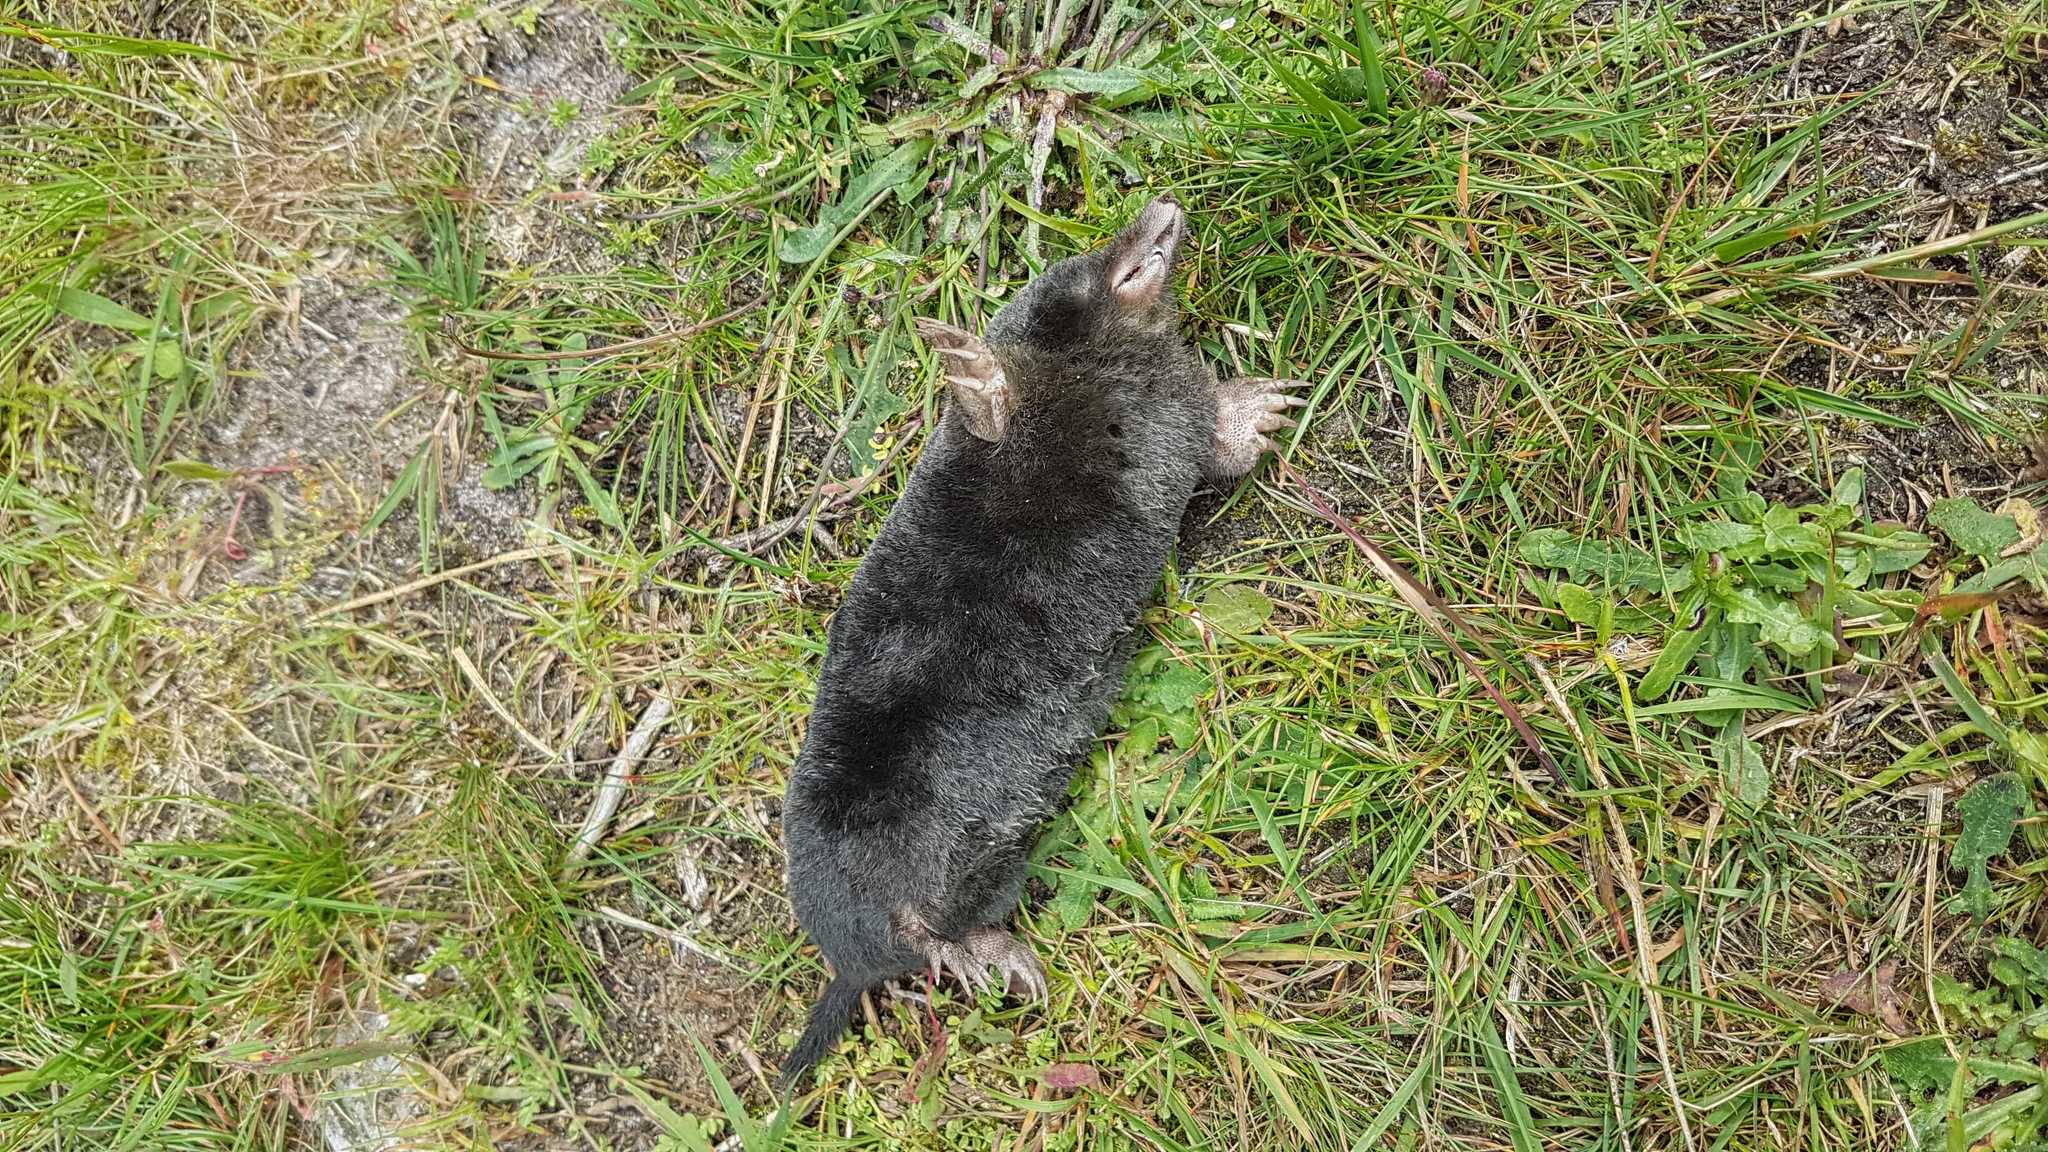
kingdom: Animalia
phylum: Chordata
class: Mammalia
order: Soricomorpha
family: Talpidae
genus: Talpa
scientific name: Talpa europaea
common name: European mole
